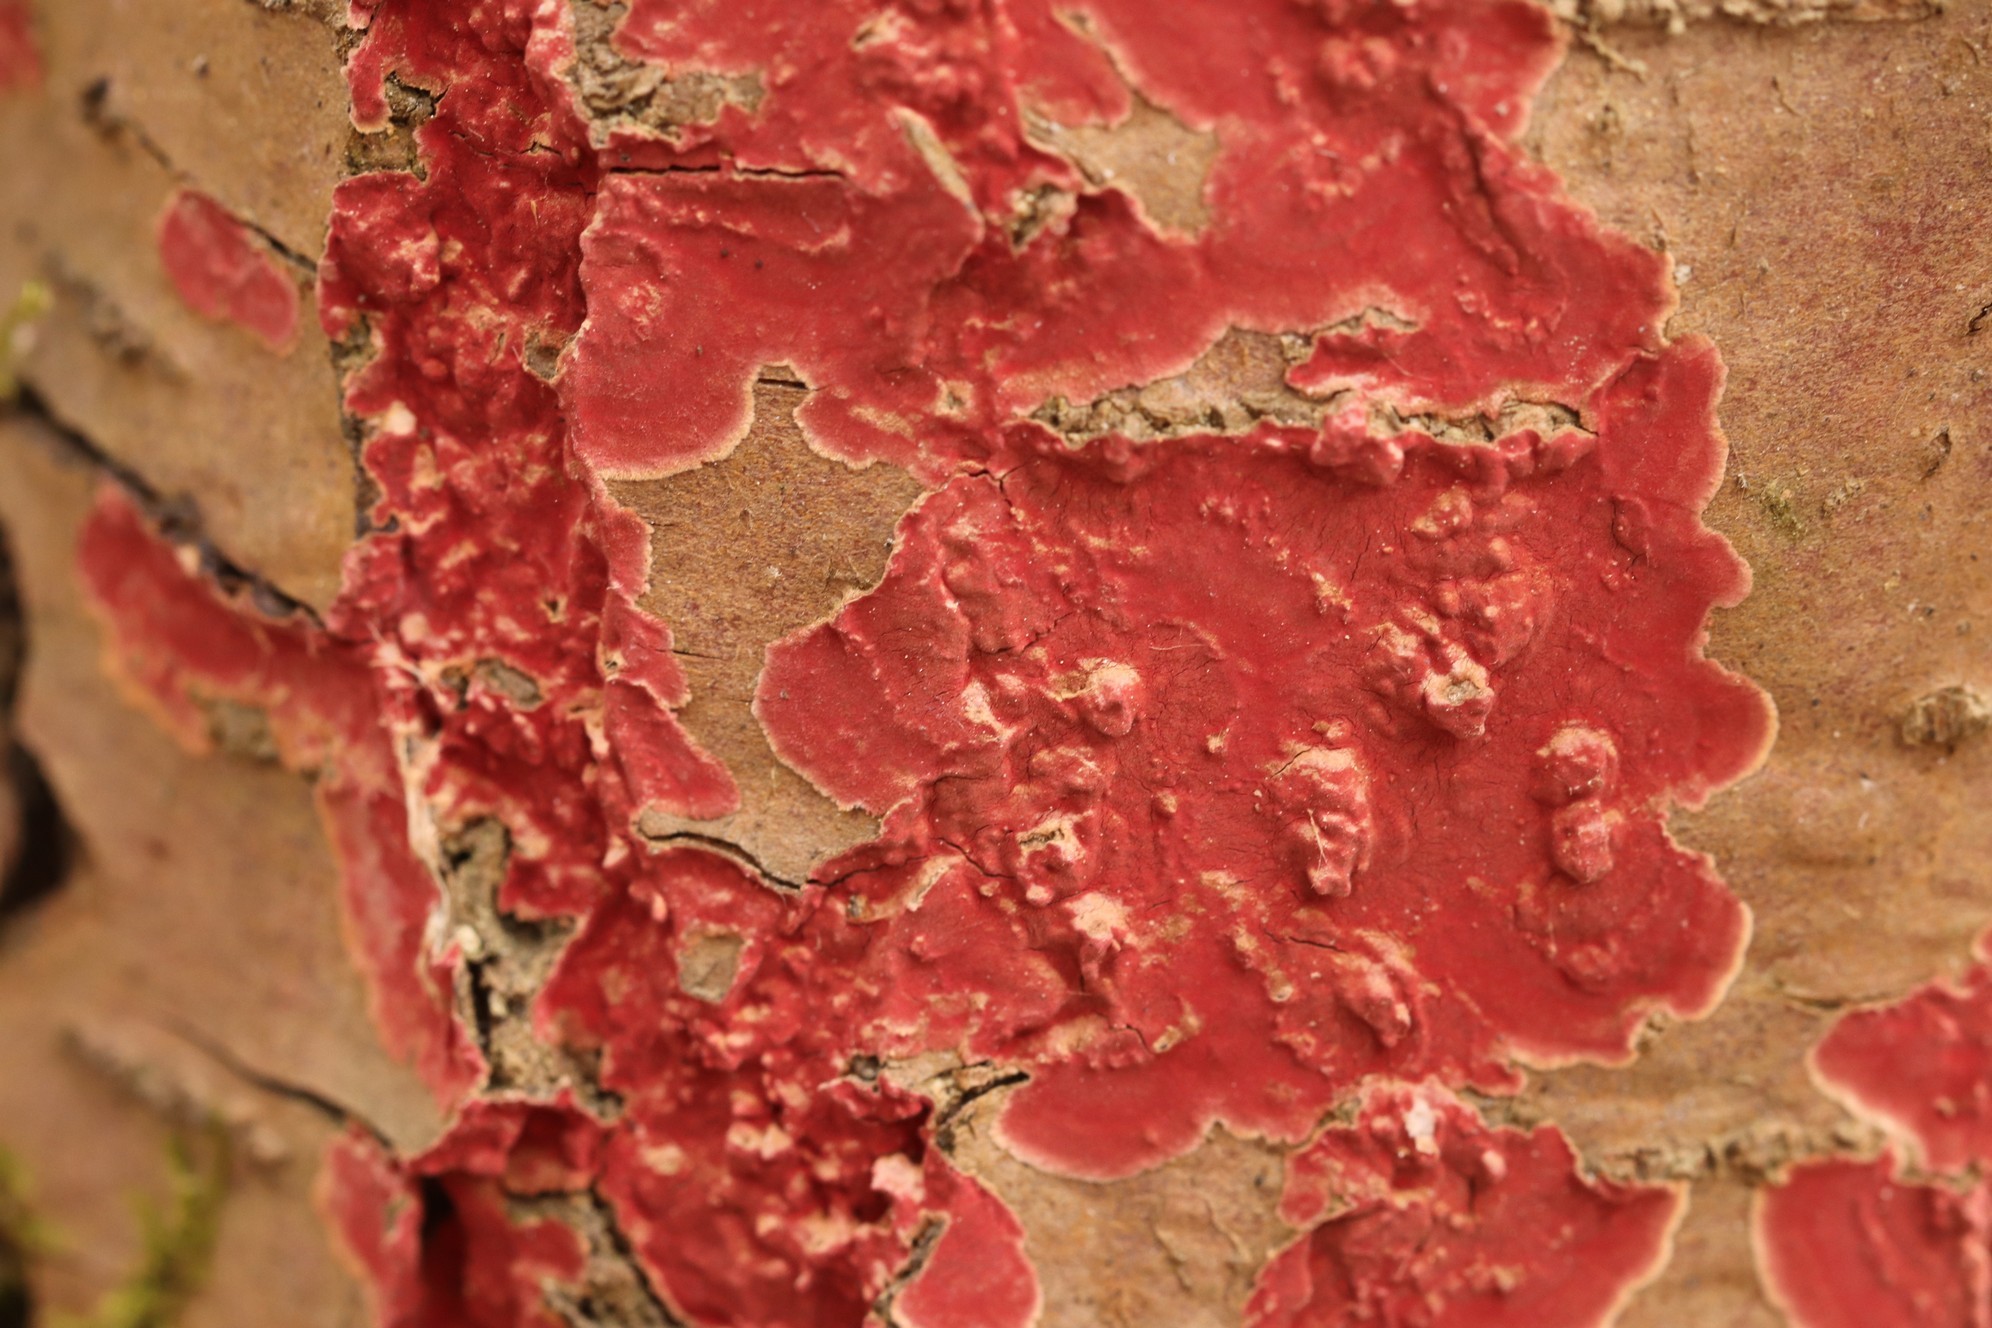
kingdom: Fungi
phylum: Basidiomycota
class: Agaricomycetes
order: Hymenochaetales
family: Hymenochaetaceae
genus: Hymenochaete
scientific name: Hymenochaete cruenta
